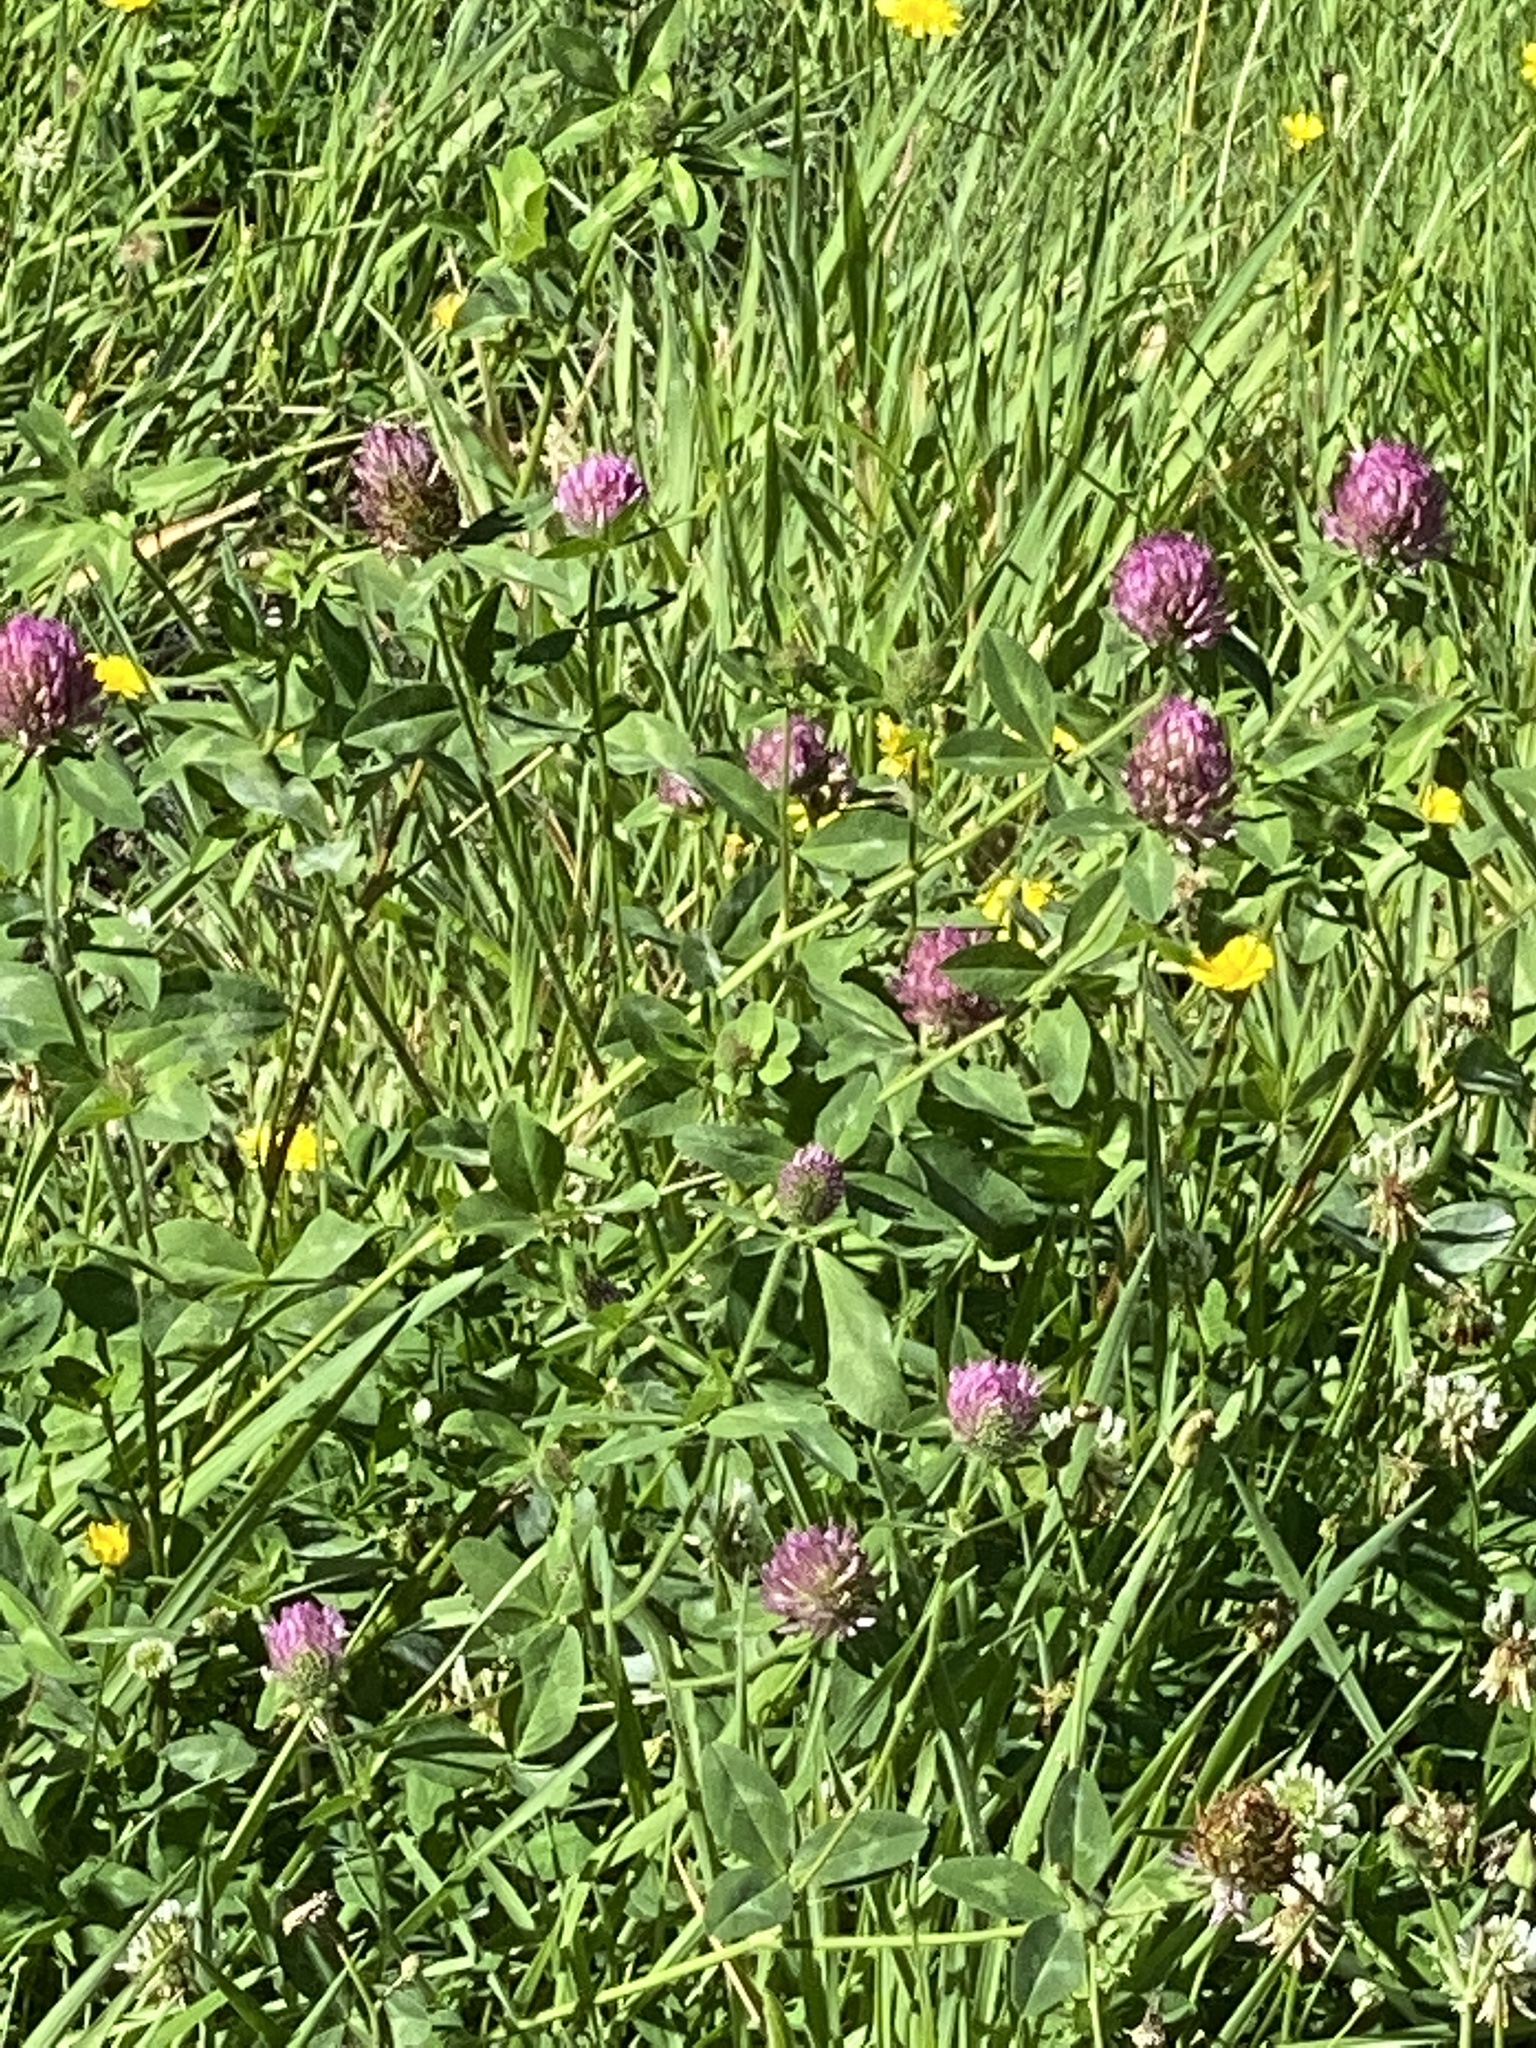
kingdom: Plantae
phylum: Tracheophyta
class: Magnoliopsida
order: Fabales
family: Fabaceae
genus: Trifolium
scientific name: Trifolium pratense
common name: Red clover
